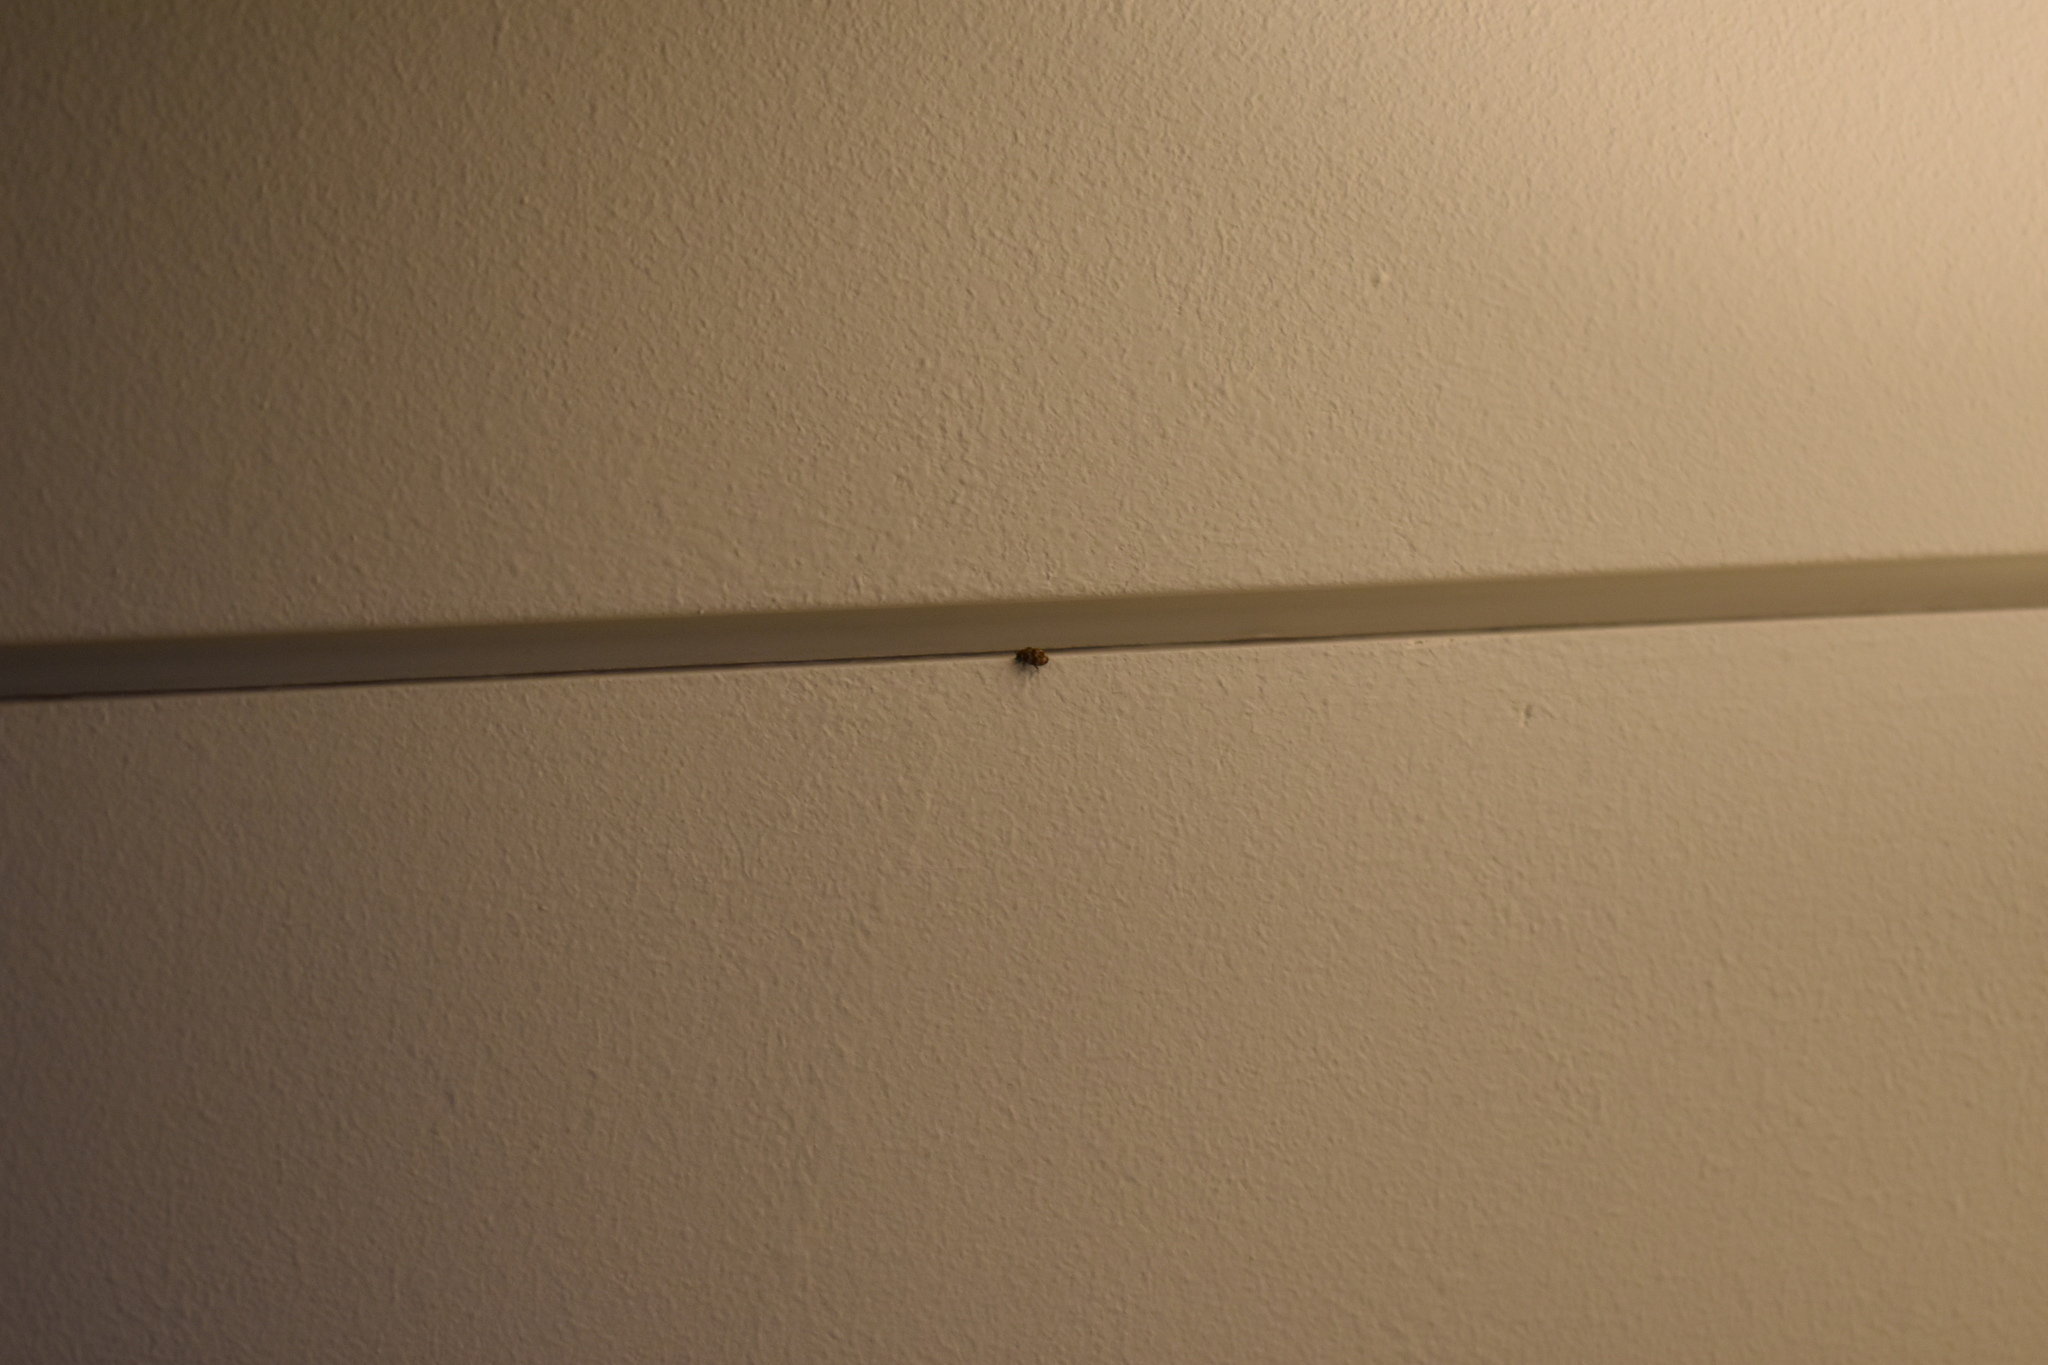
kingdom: Animalia
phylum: Arthropoda
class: Insecta
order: Coleoptera
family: Dermestidae
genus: Anthrenus
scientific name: Anthrenus verbasci
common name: Varied carpet beetle
